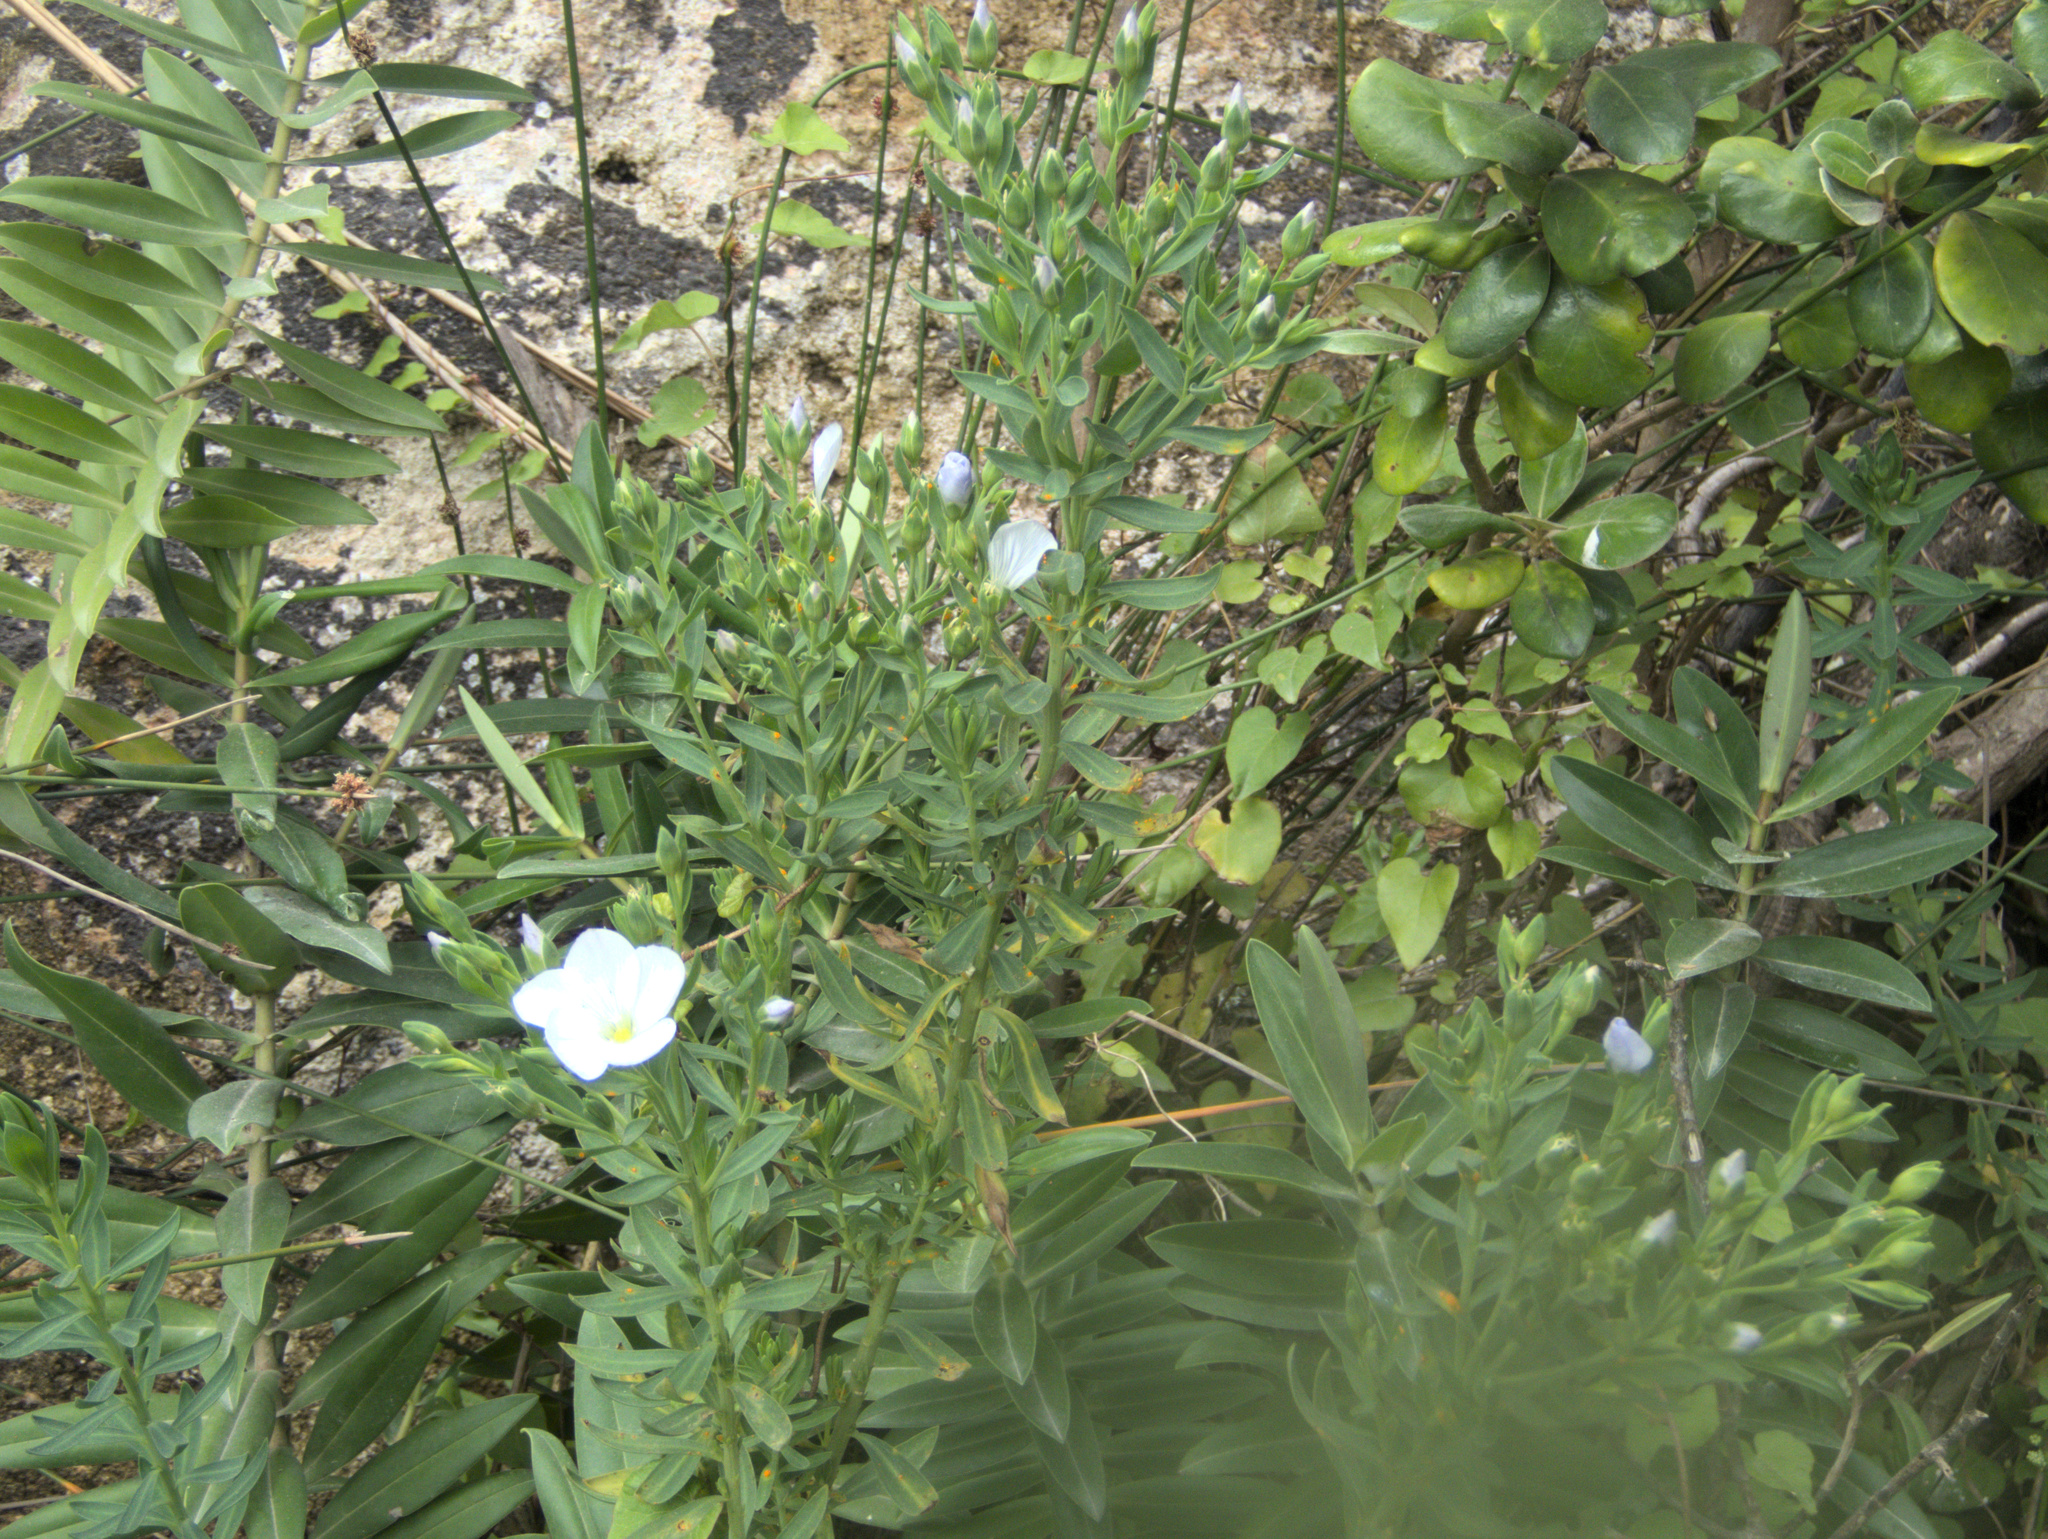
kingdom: Plantae
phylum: Tracheophyta
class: Magnoliopsida
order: Malpighiales
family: Linaceae
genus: Linum
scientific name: Linum monogynum
